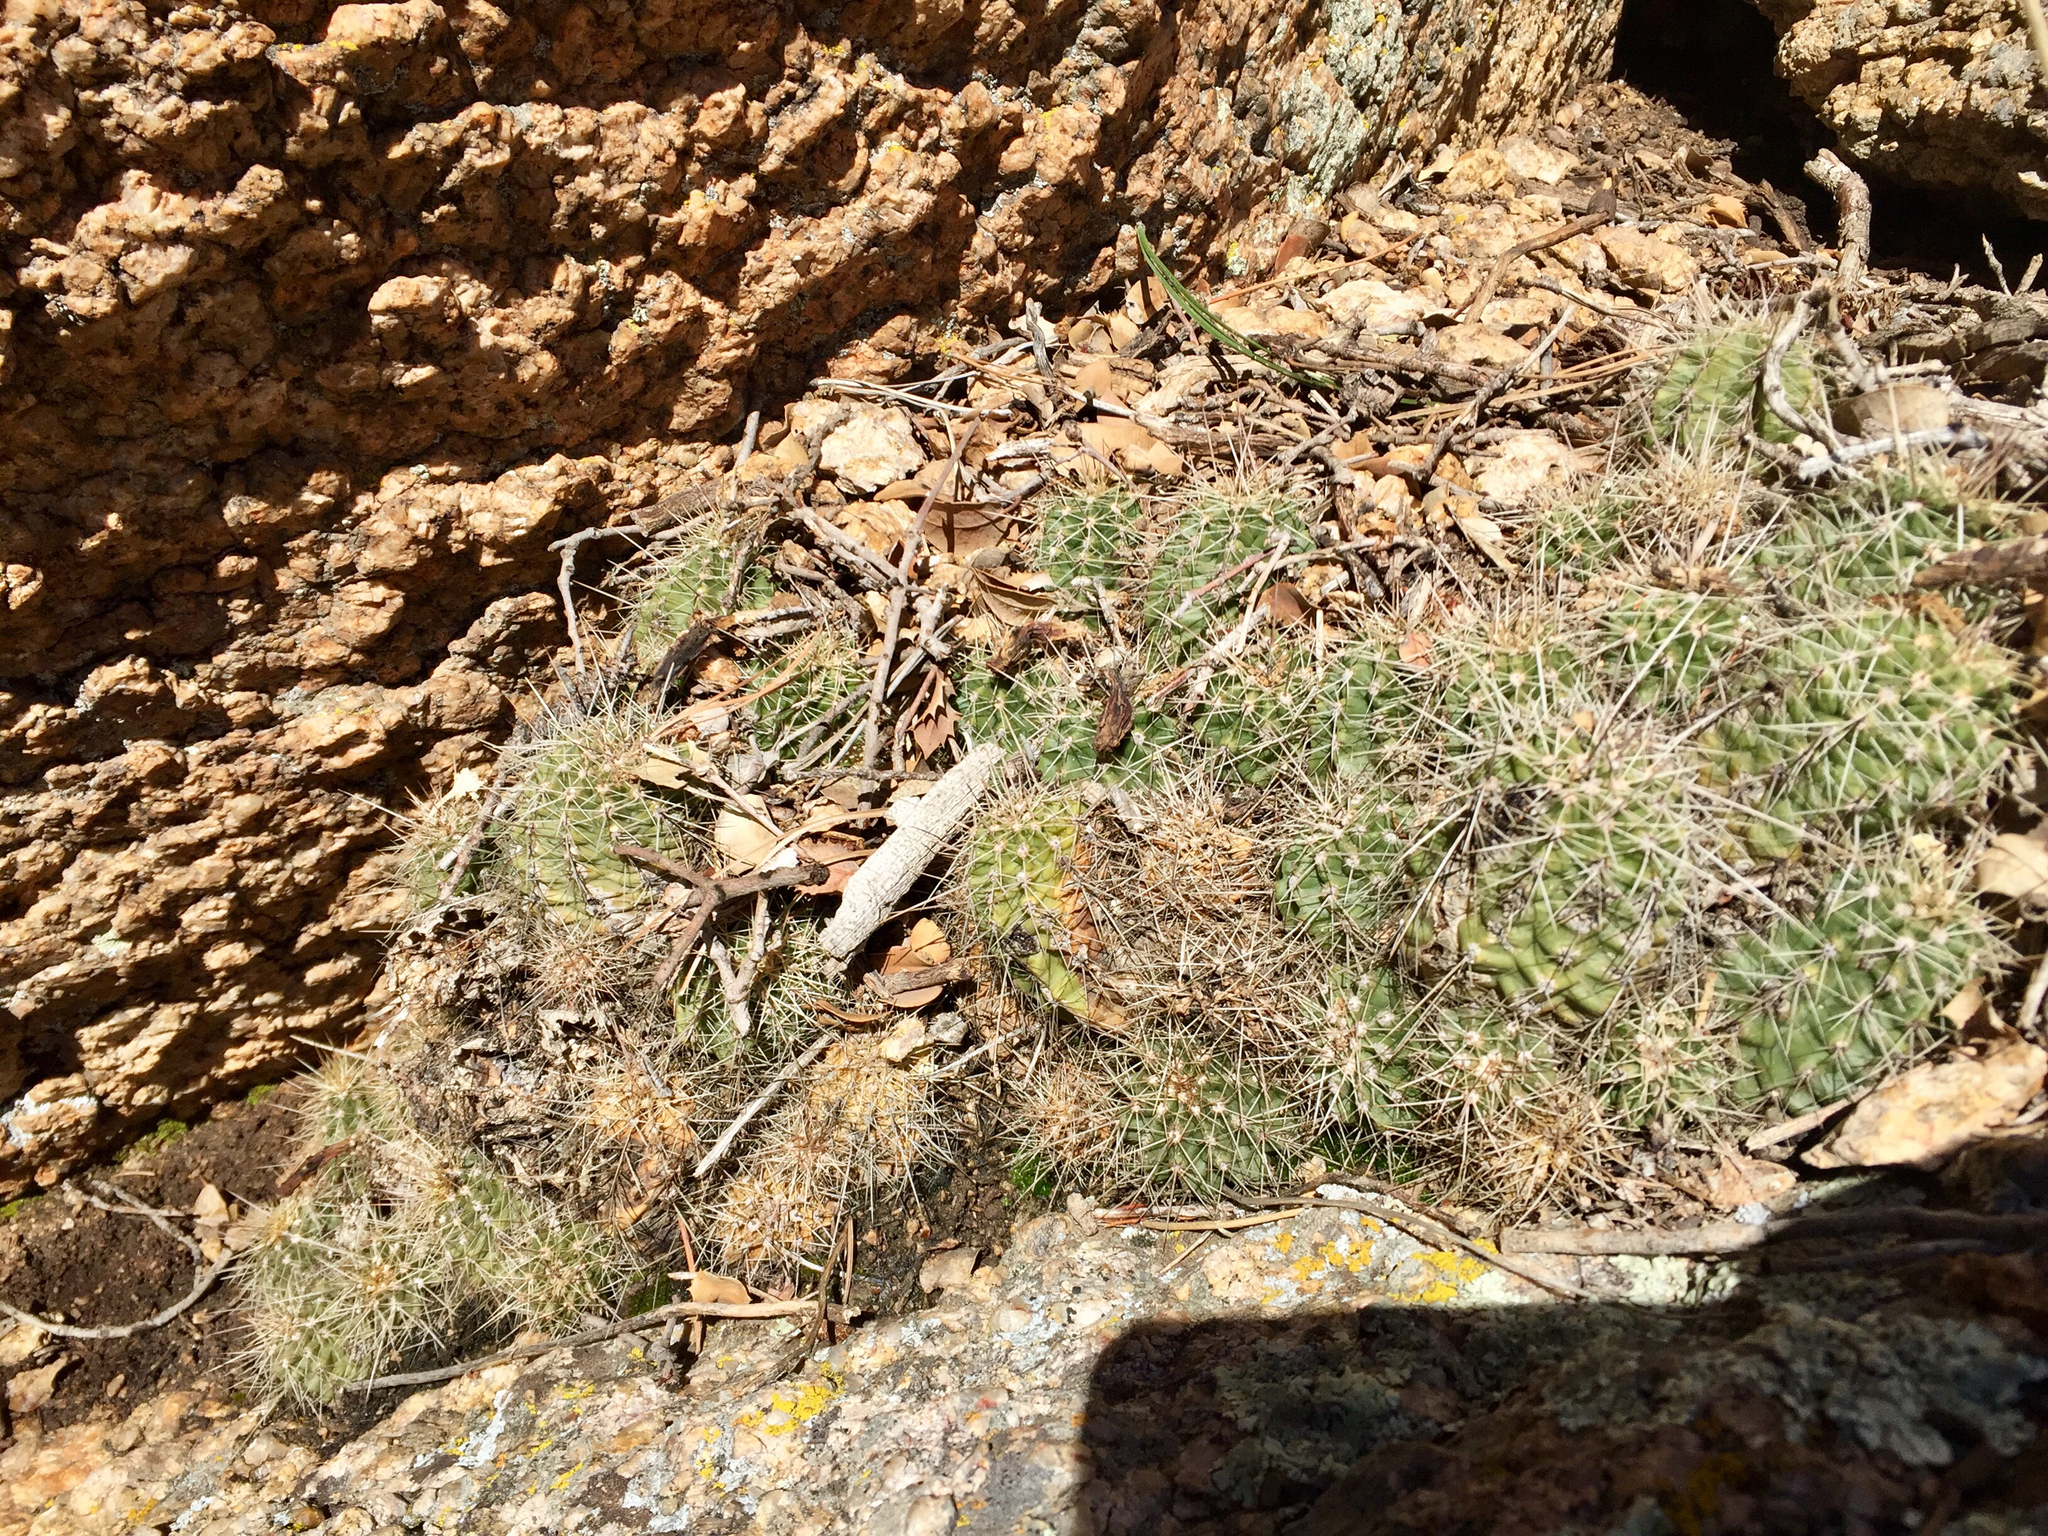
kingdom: Plantae
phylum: Tracheophyta
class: Magnoliopsida
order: Caryophyllales
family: Cactaceae
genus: Echinocereus
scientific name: Echinocereus bakeri
